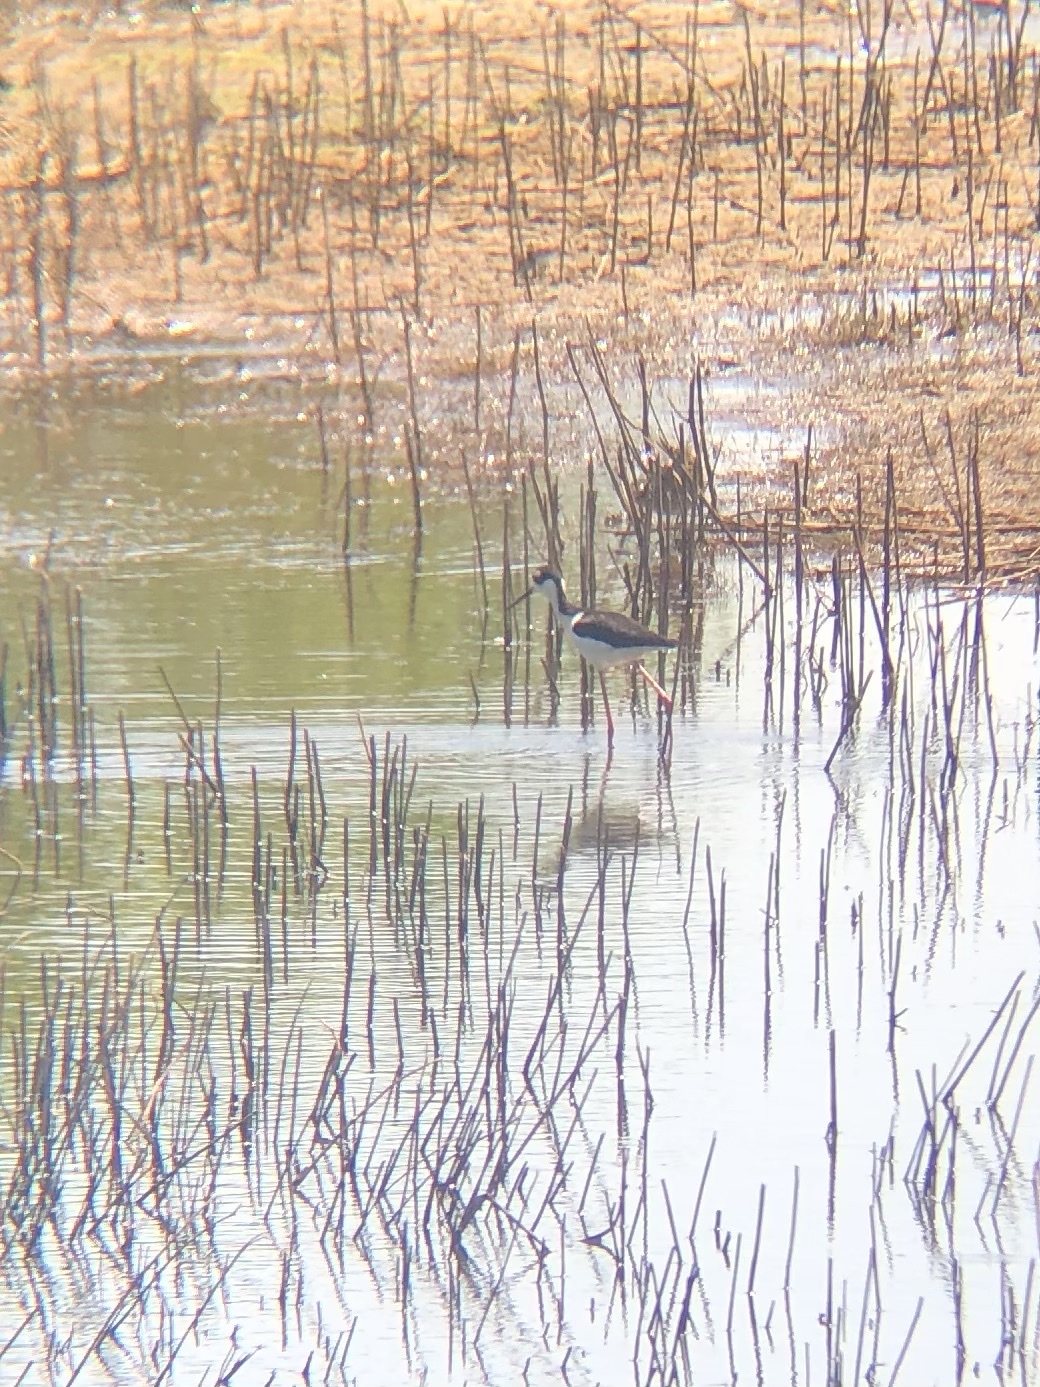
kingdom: Animalia
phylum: Chordata
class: Aves
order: Charadriiformes
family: Recurvirostridae
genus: Himantopus
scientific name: Himantopus mexicanus
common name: Black-necked stilt
